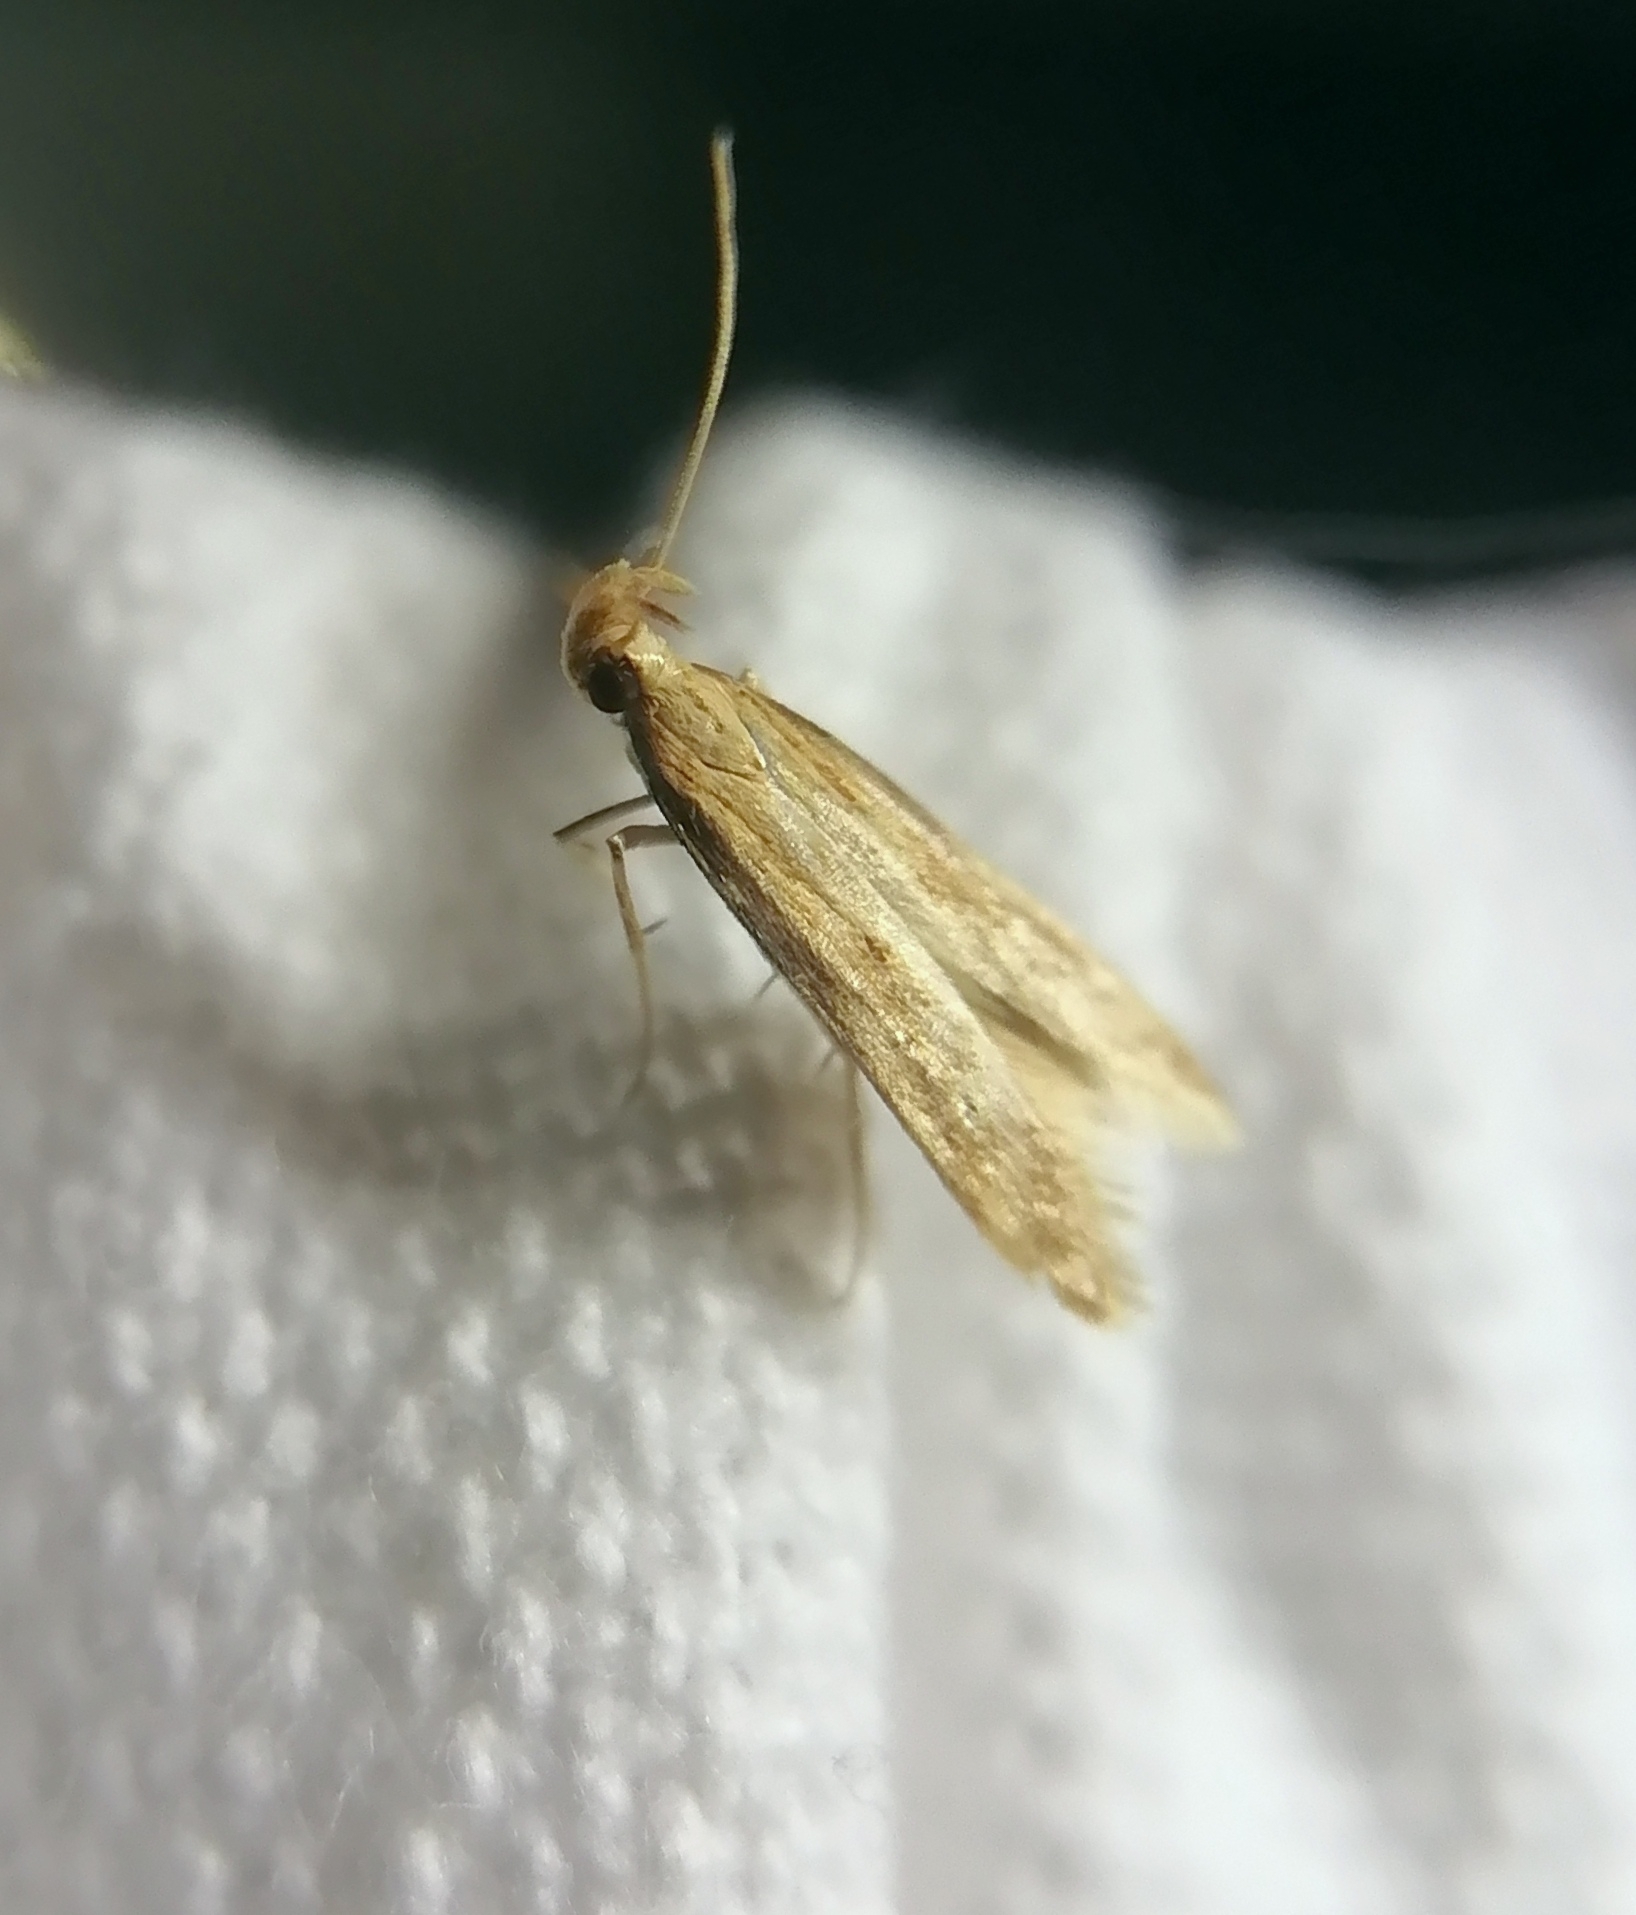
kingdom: Animalia
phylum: Arthropoda
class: Insecta
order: Lepidoptera
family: Gelechiidae
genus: Metzneria
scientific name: Metzneria lappella
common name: Burdock neb
